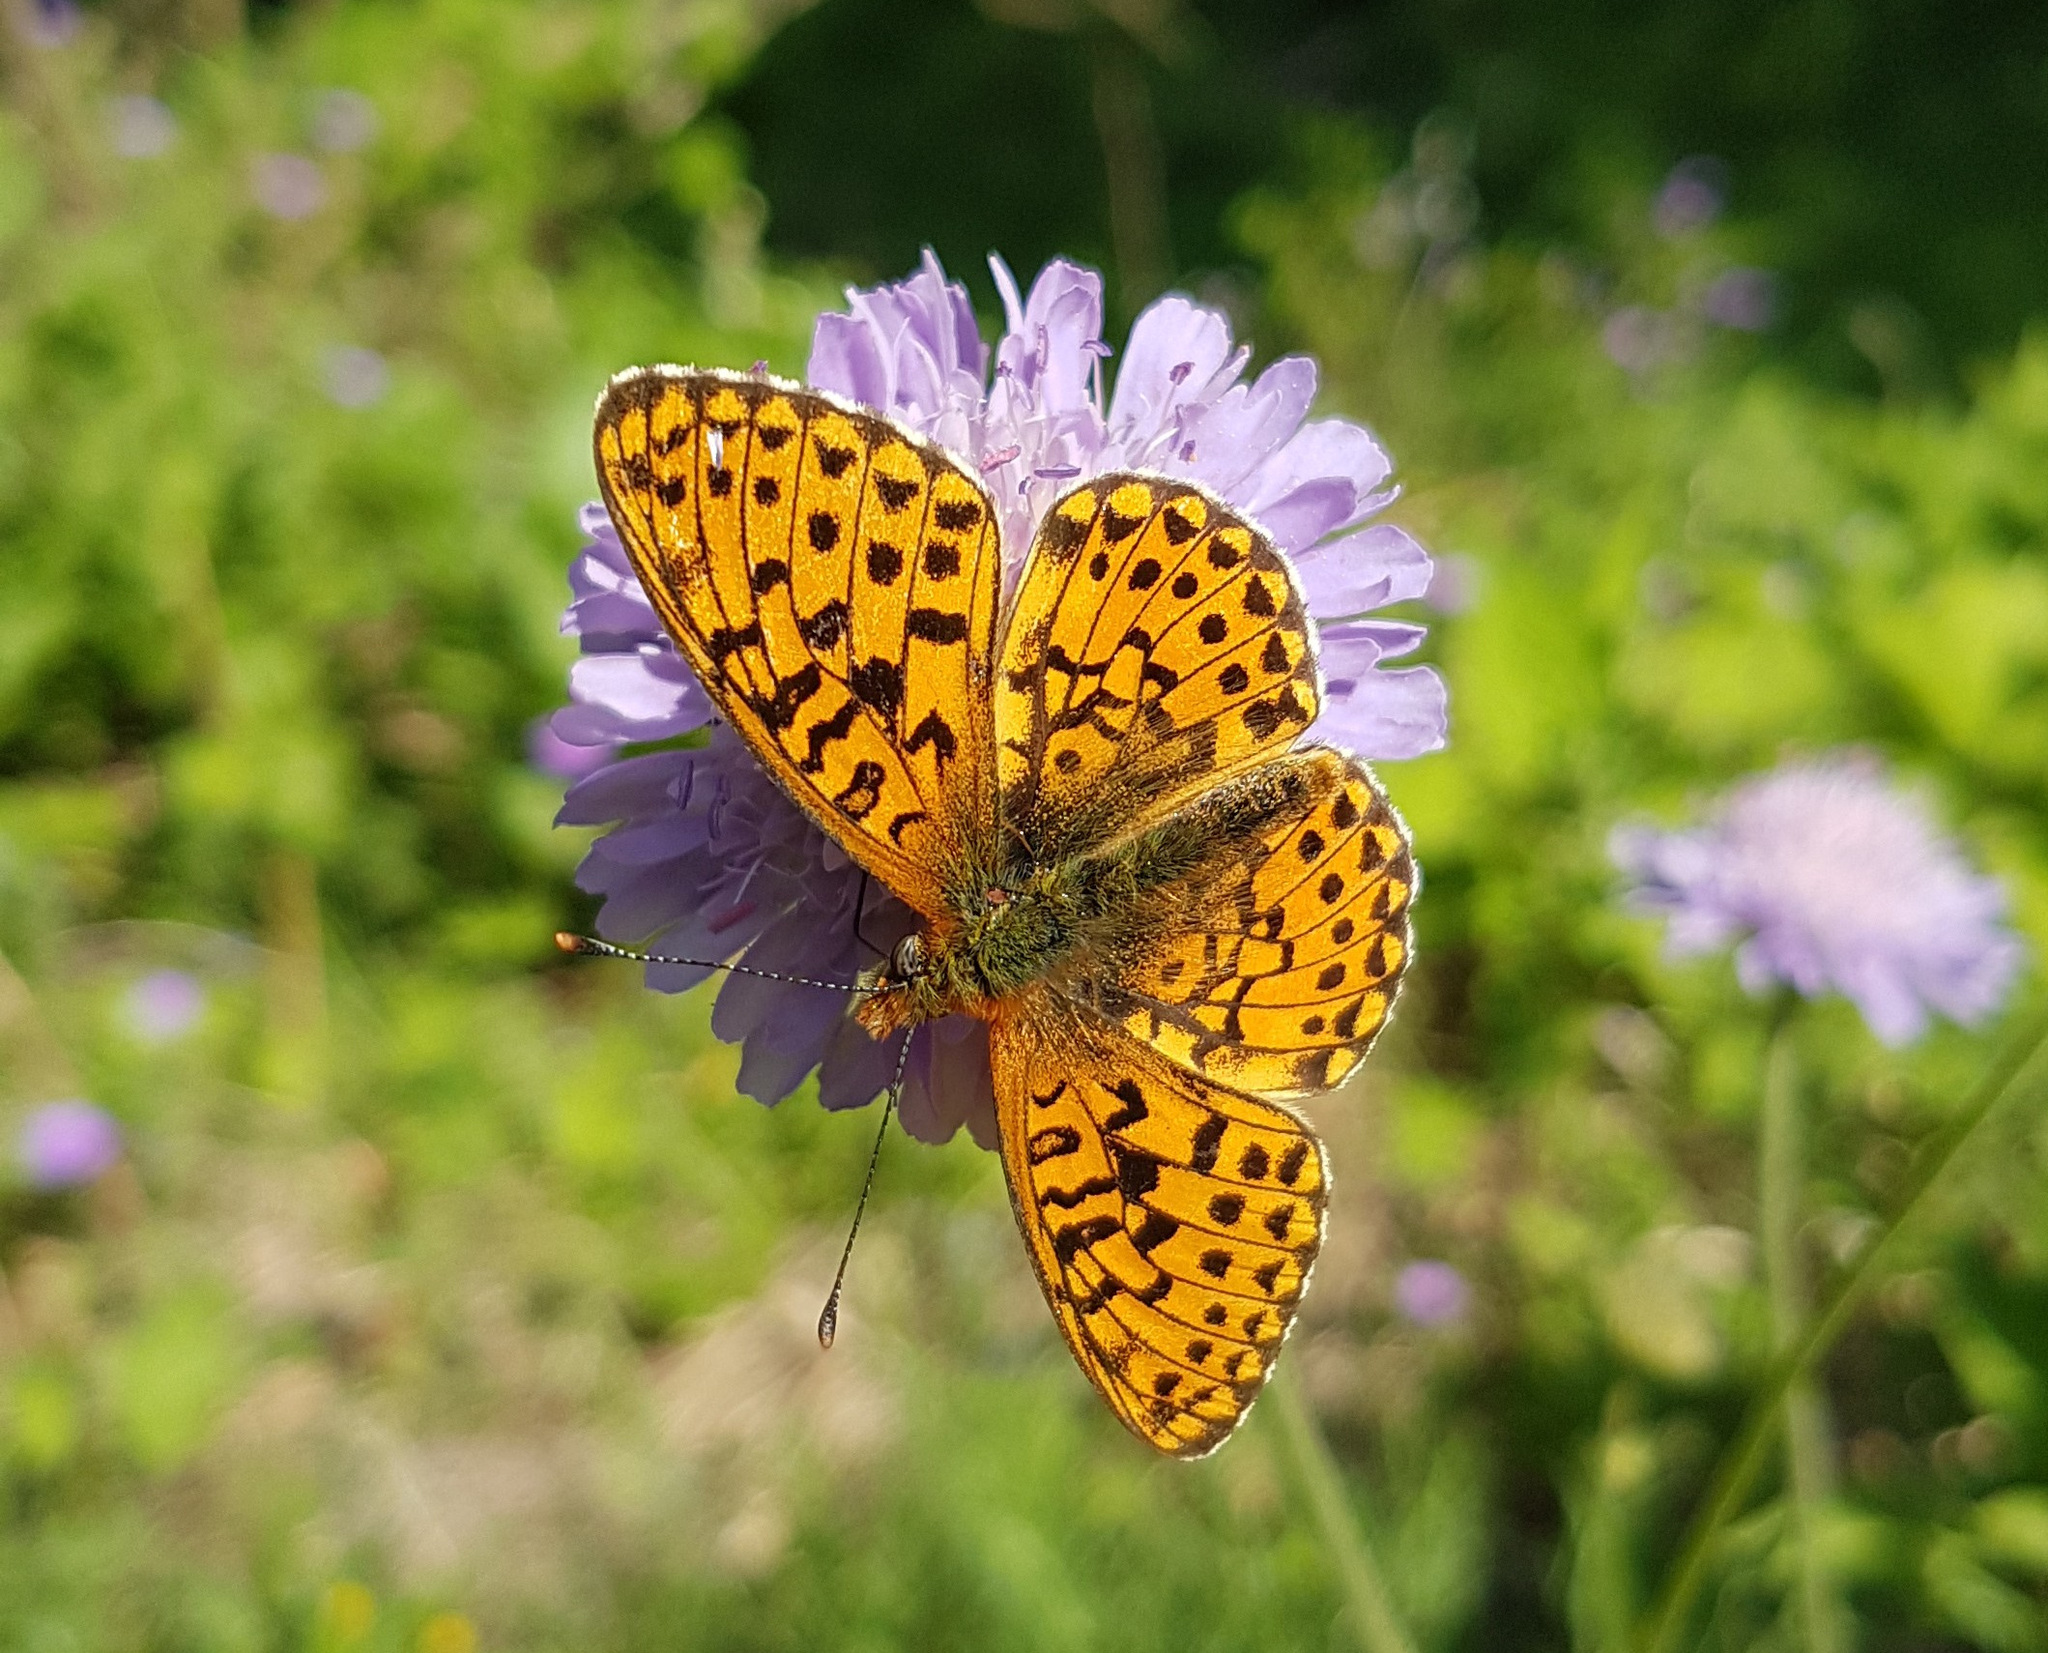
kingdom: Animalia
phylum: Arthropoda
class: Insecta
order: Lepidoptera
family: Nymphalidae
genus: Clossiana
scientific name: Clossiana euphrosyne
